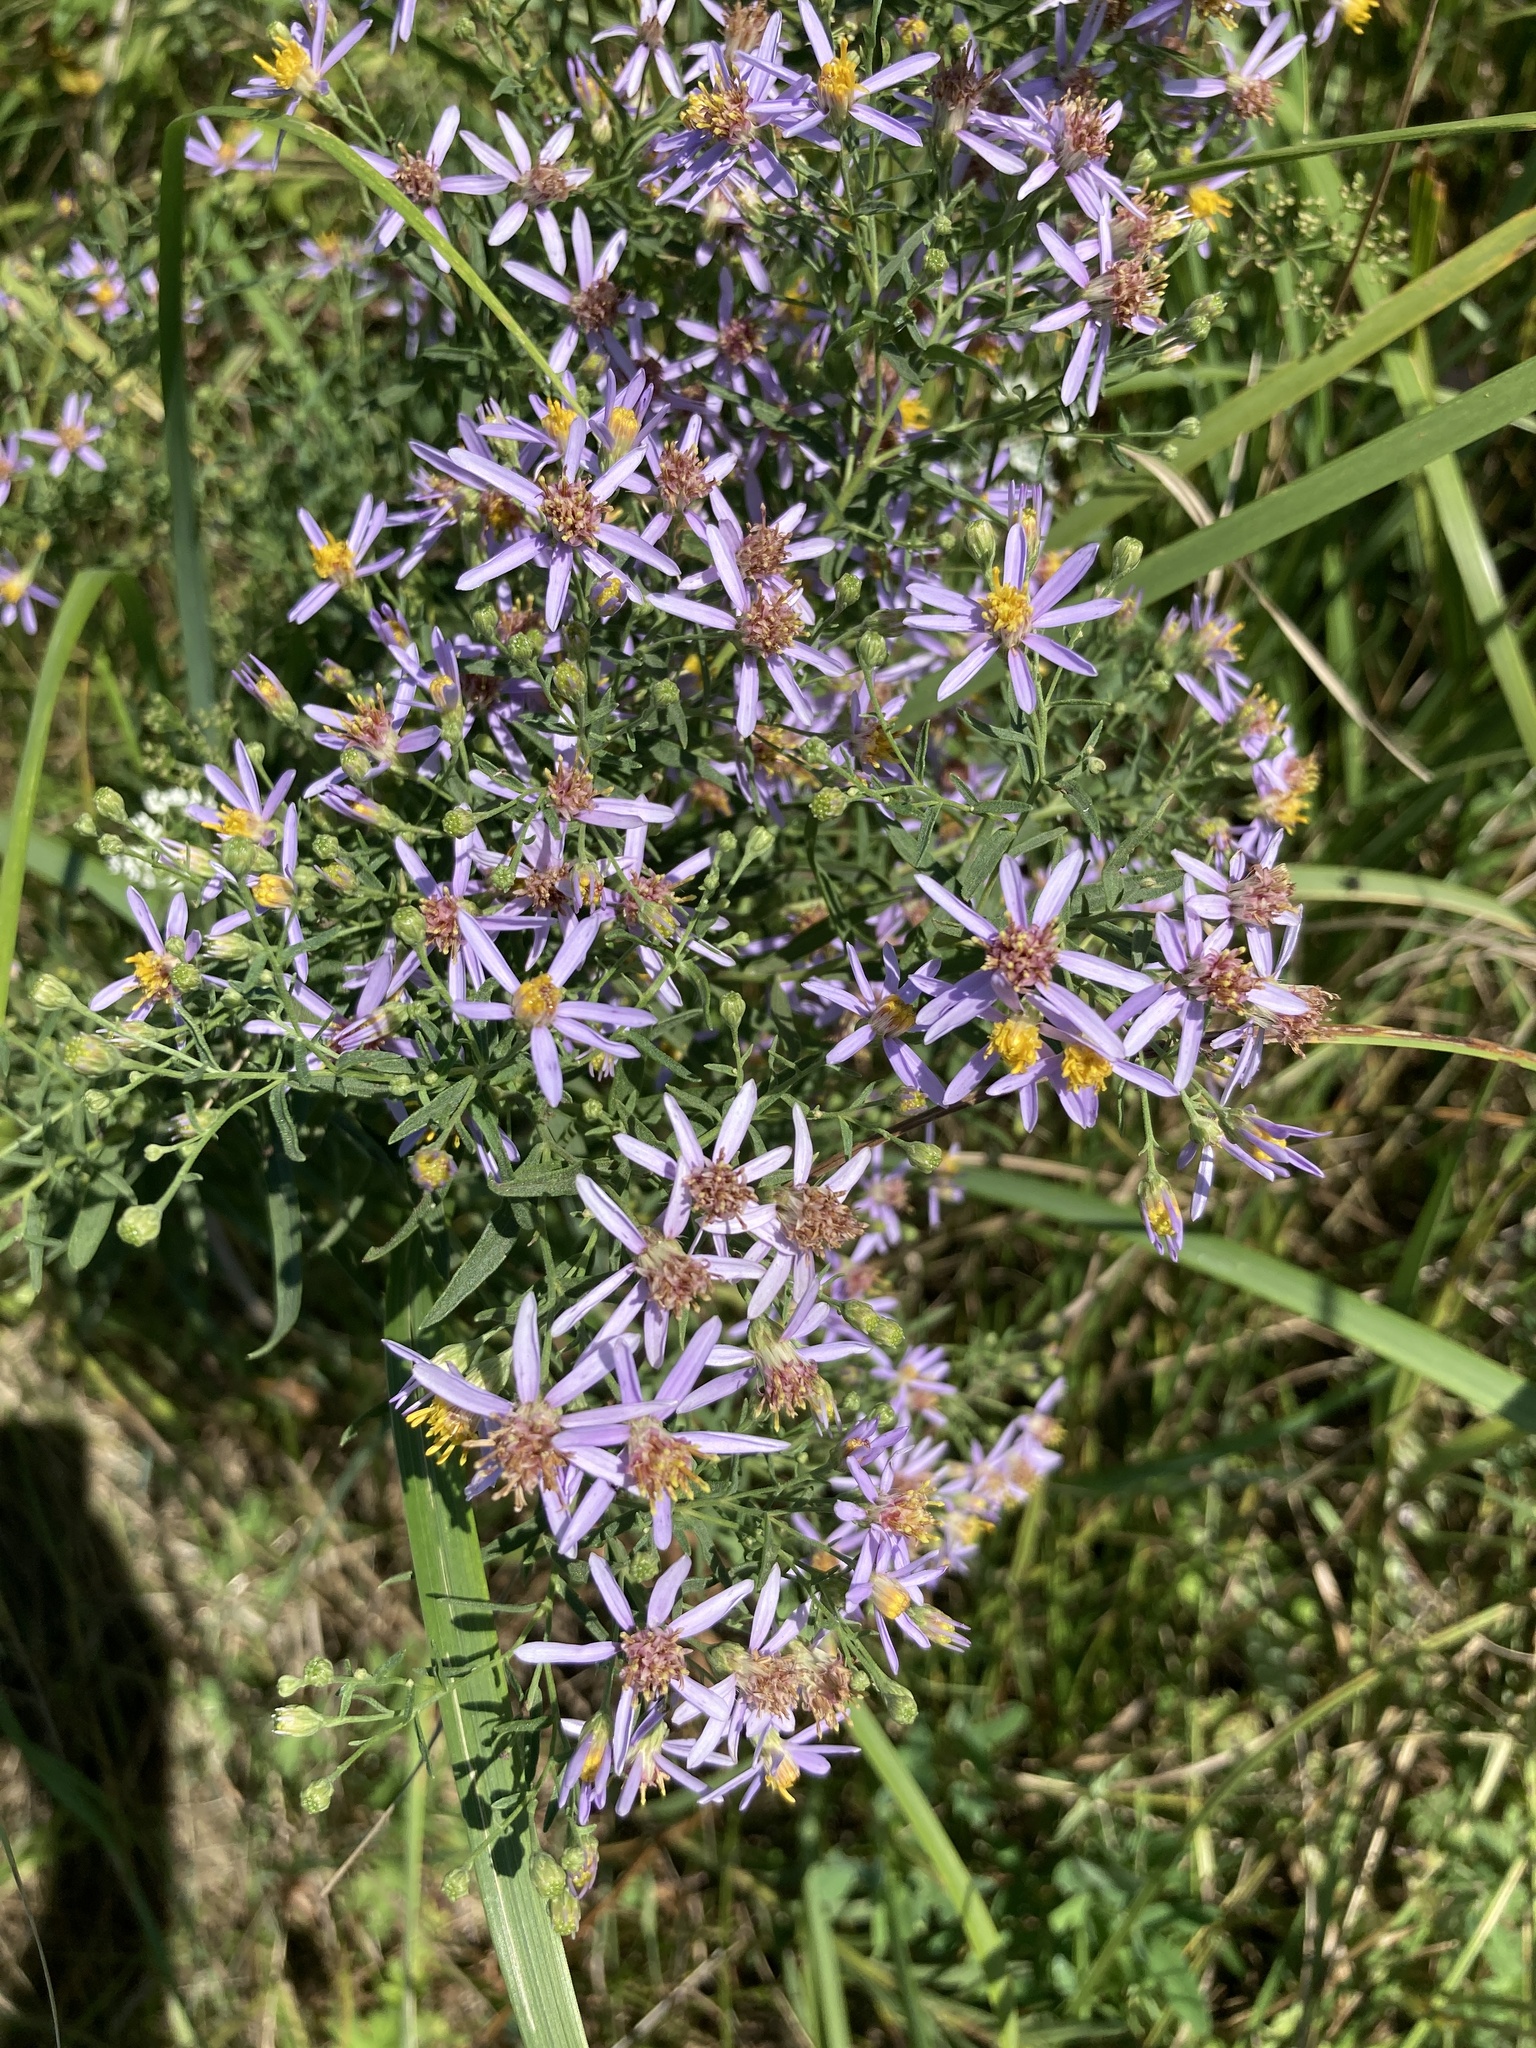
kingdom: Plantae
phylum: Tracheophyta
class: Magnoliopsida
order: Asterales
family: Asteraceae
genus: Galatella
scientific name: Galatella sedifolia
